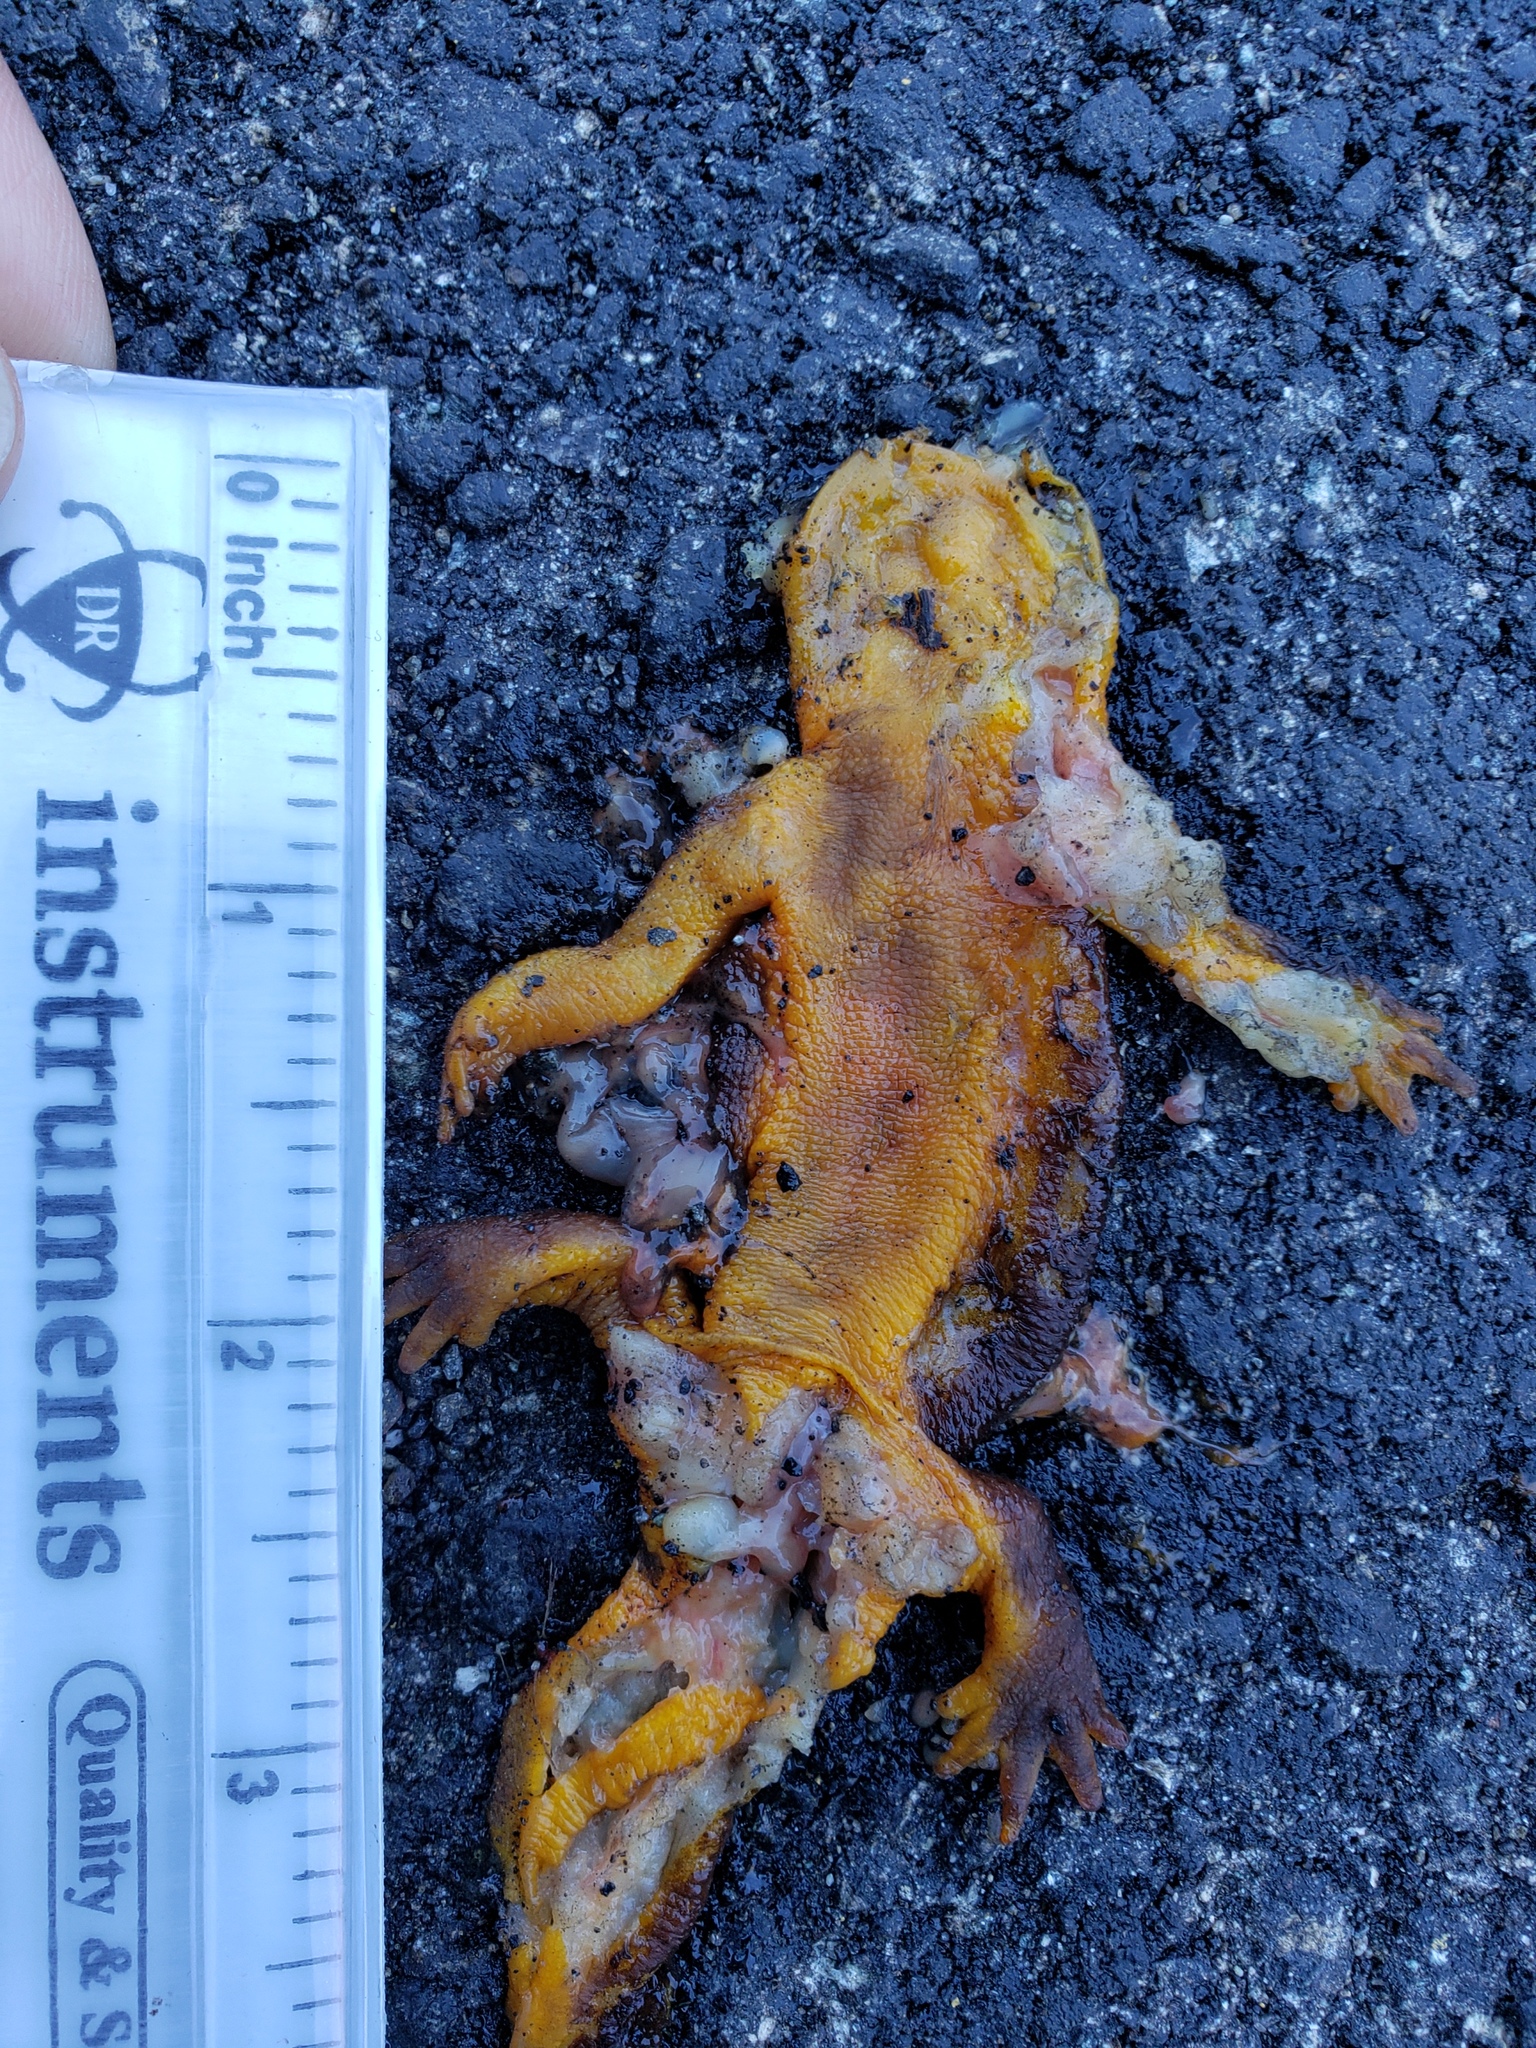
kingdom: Animalia
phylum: Chordata
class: Amphibia
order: Caudata
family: Salamandridae
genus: Taricha
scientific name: Taricha
